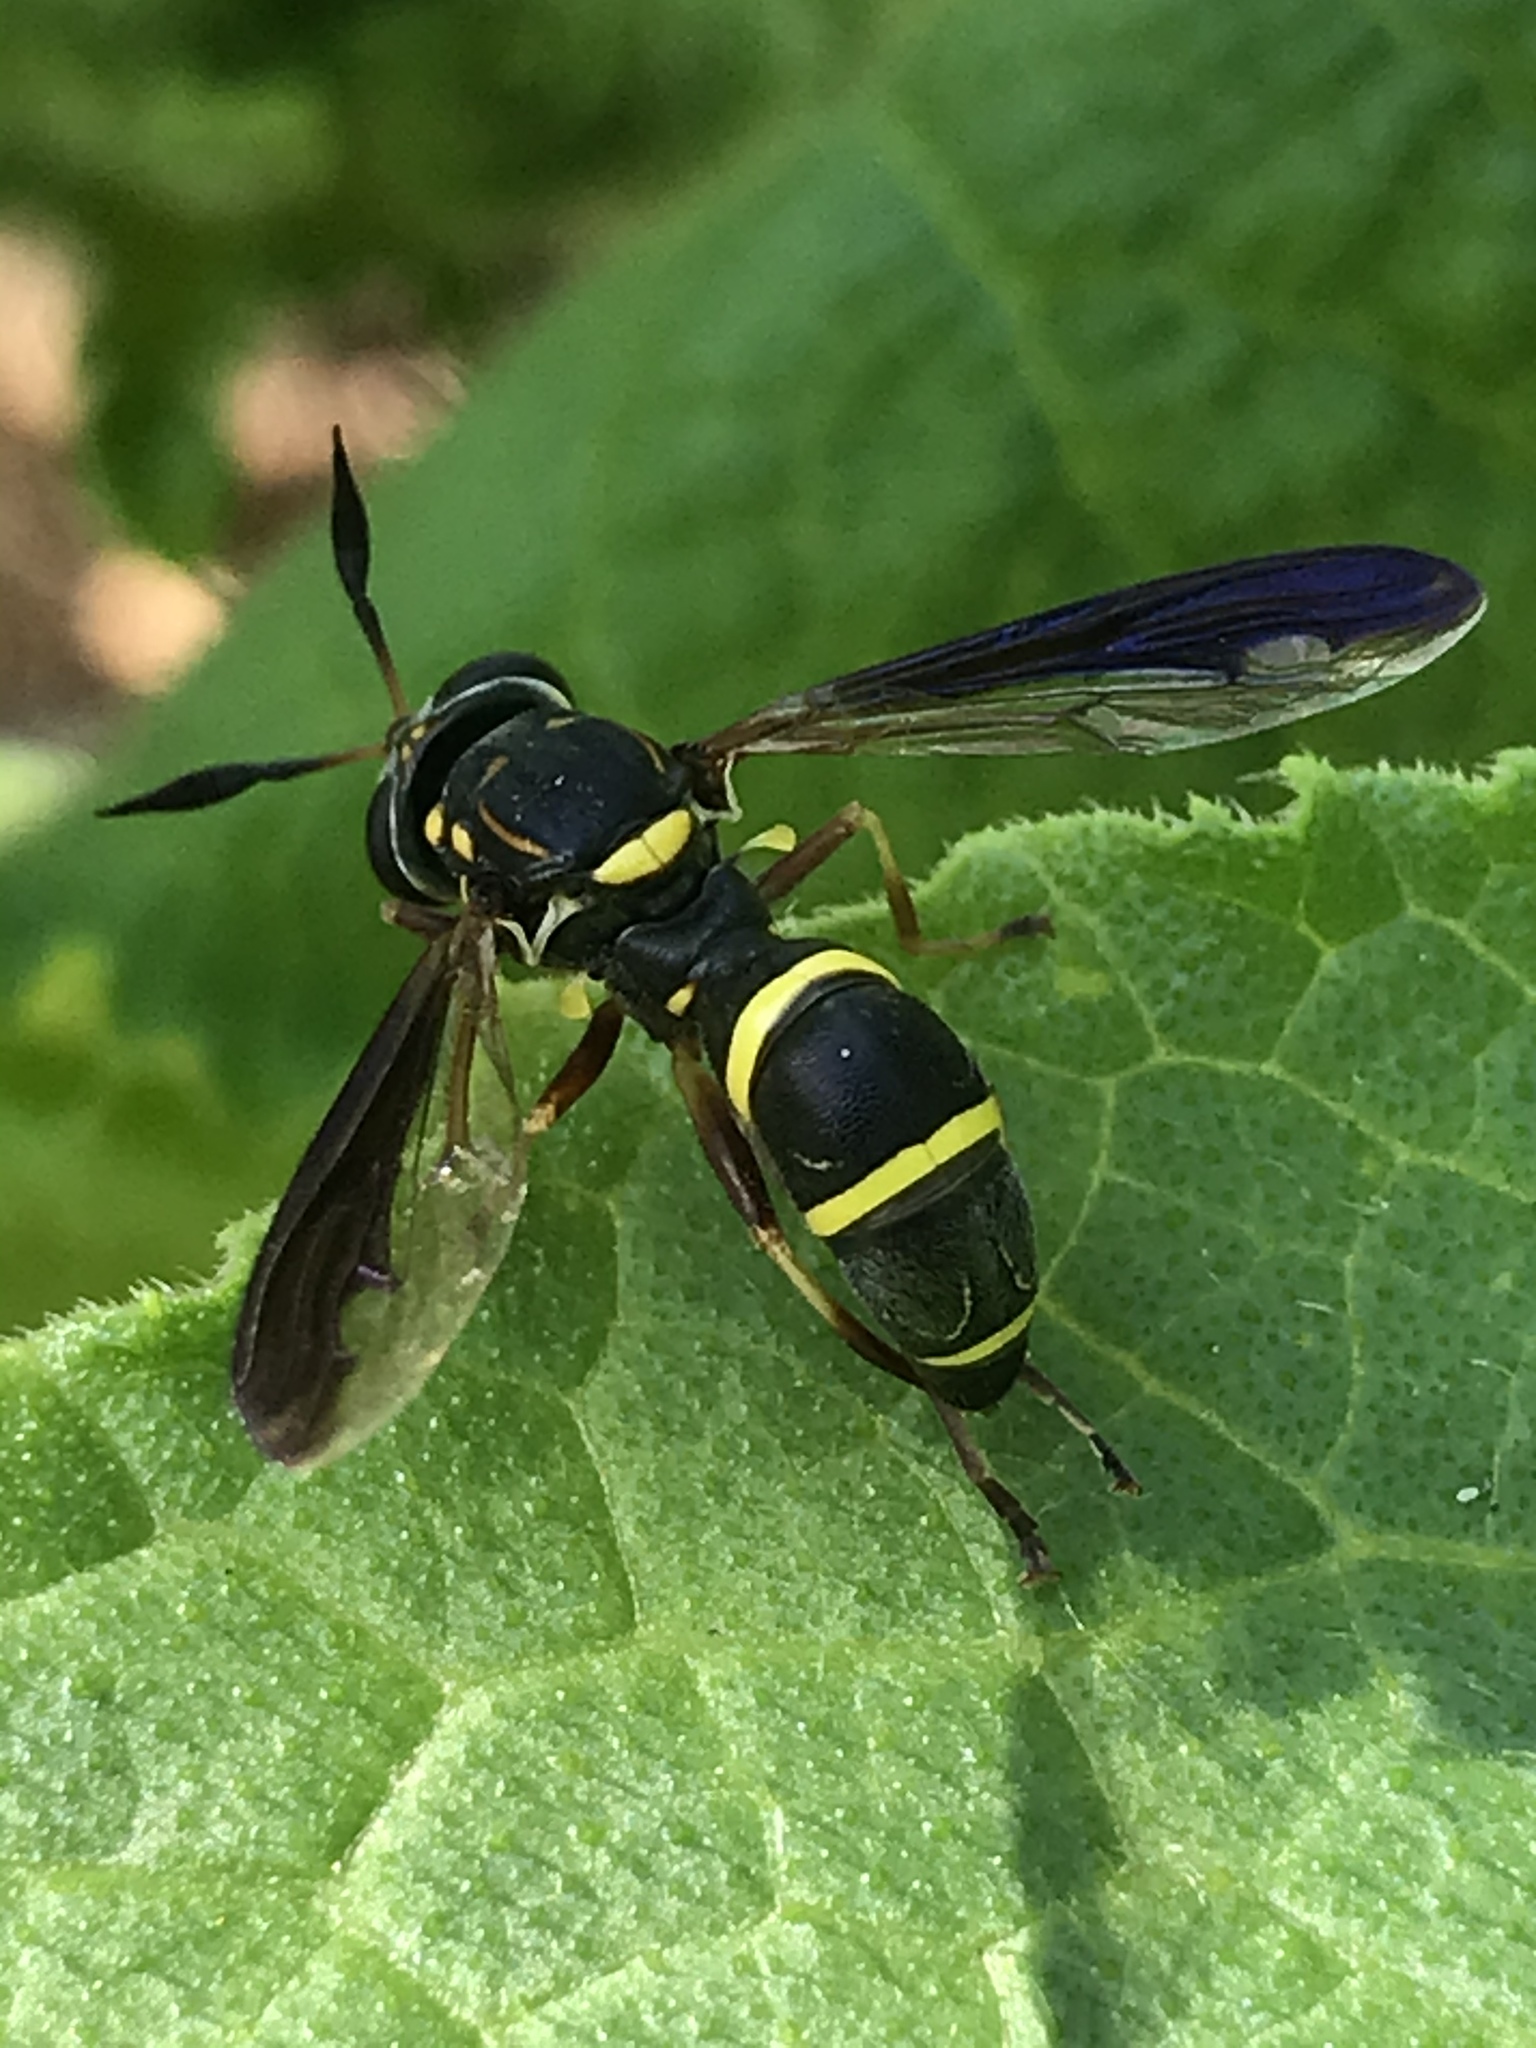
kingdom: Animalia
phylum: Arthropoda
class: Insecta
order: Diptera
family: Syrphidae
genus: Sphiximorpha
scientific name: Sphiximorpha willistoni
